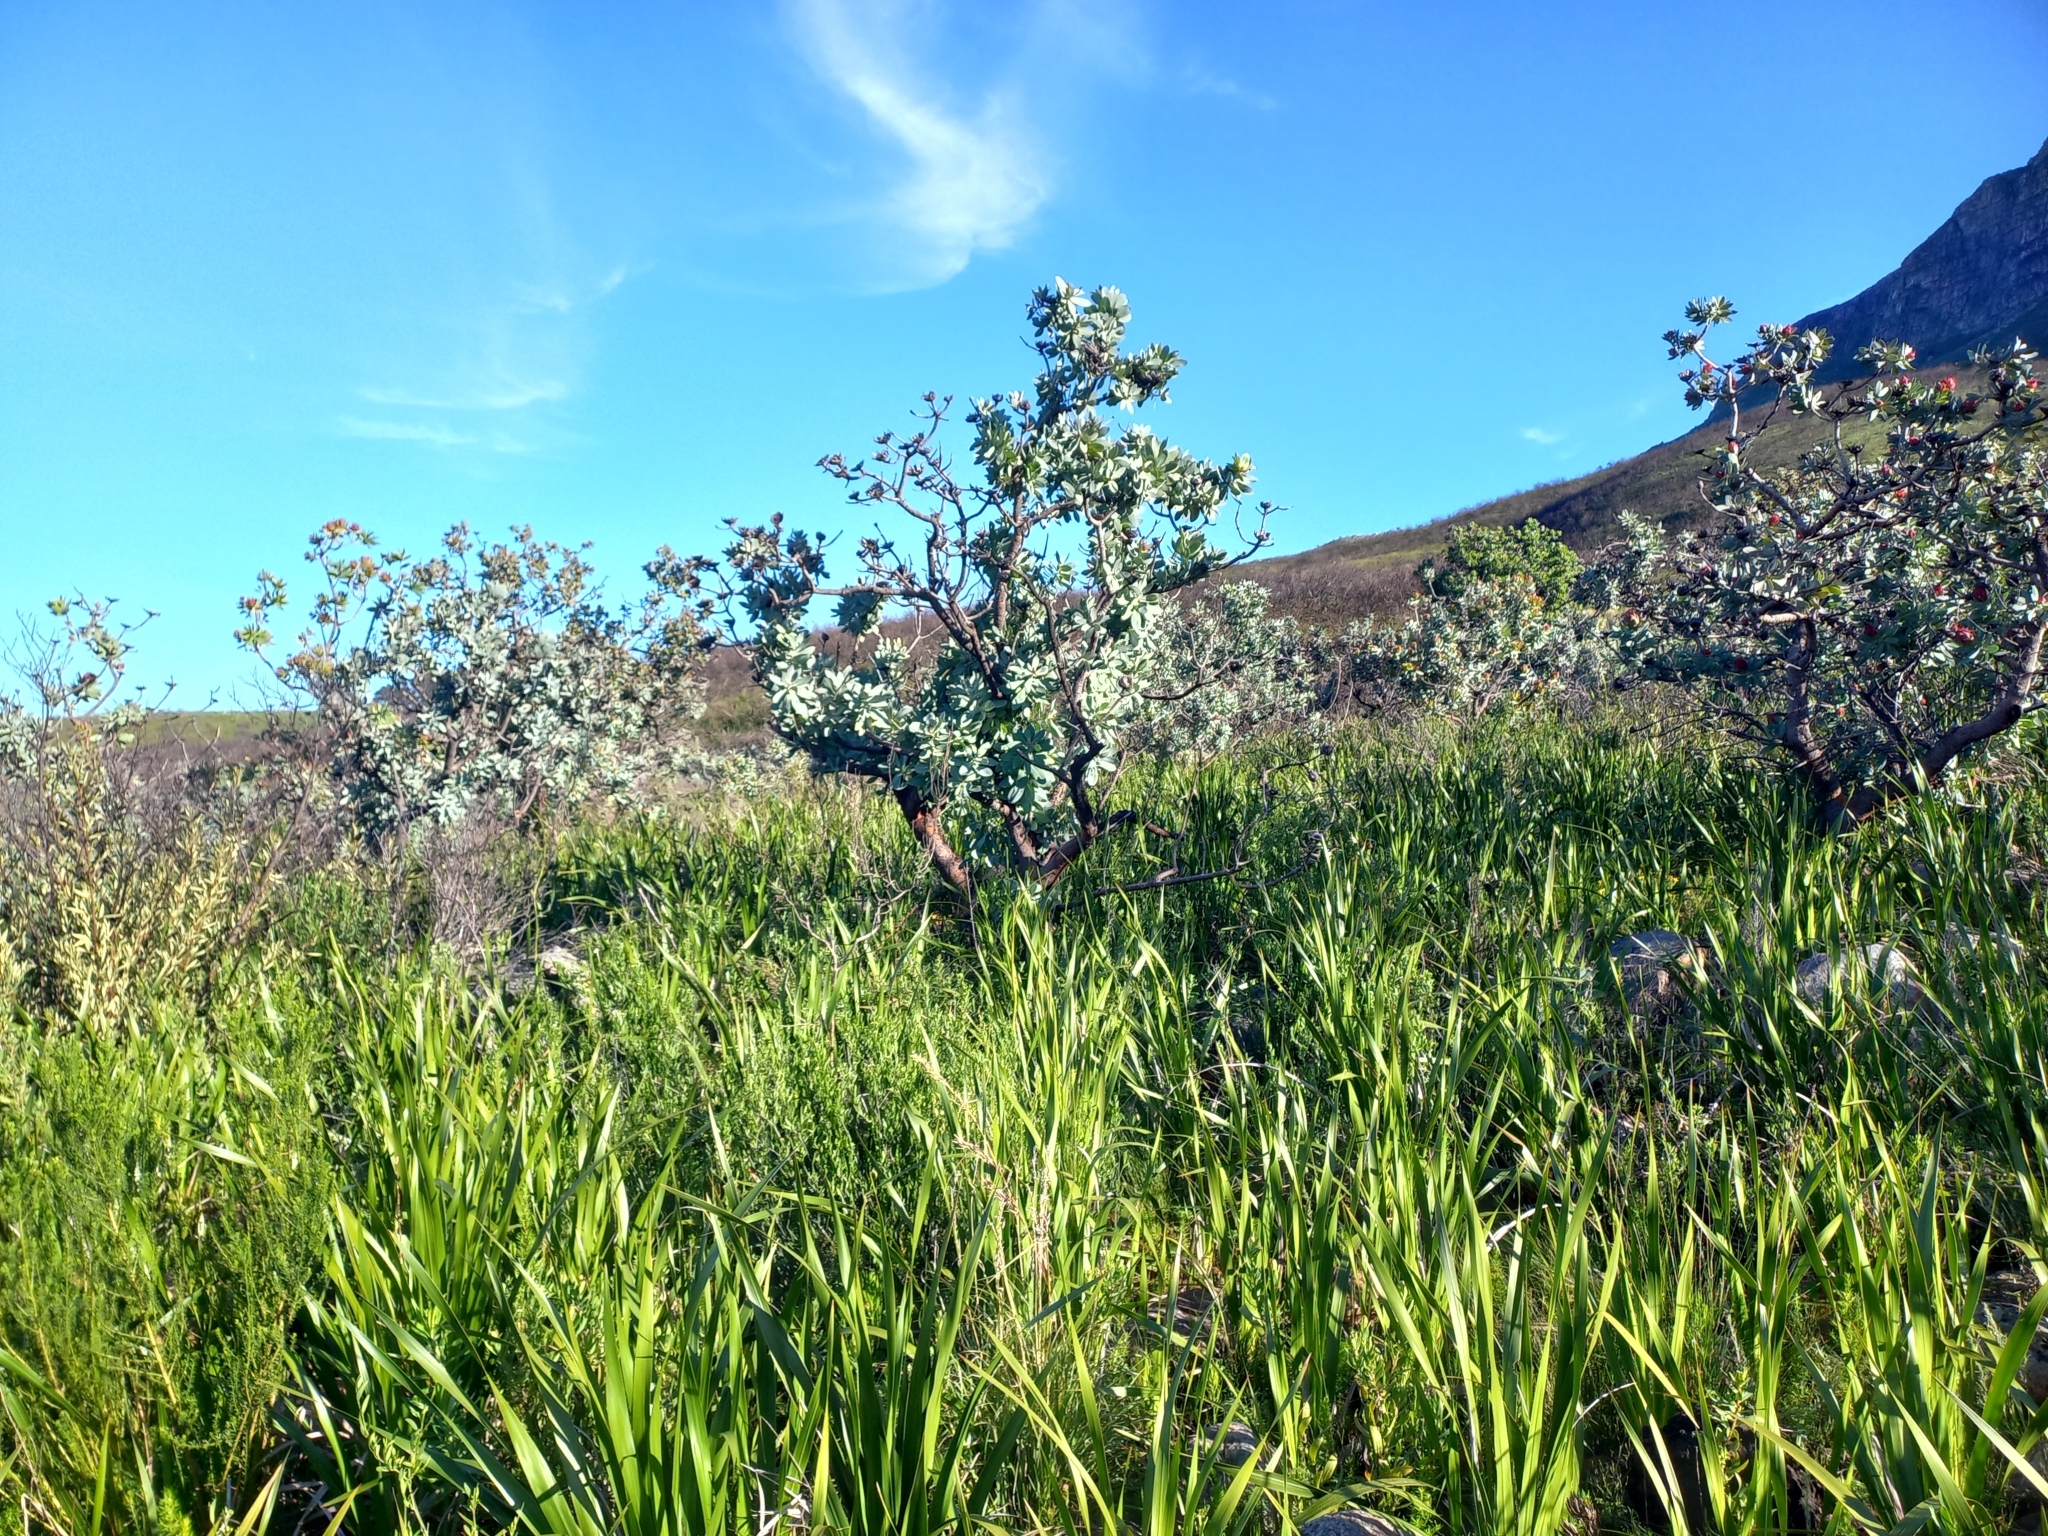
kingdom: Plantae
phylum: Tracheophyta
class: Magnoliopsida
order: Proteales
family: Proteaceae
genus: Protea
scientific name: Protea nitida
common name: Tree protea
